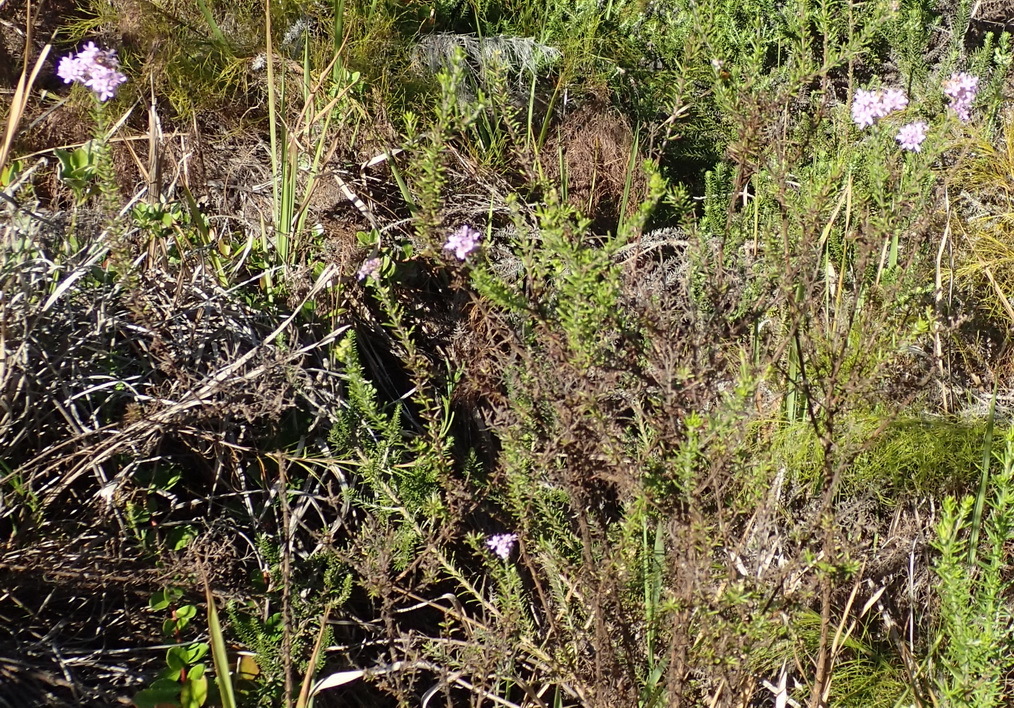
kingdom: Plantae
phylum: Tracheophyta
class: Magnoliopsida
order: Lamiales
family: Scrophulariaceae
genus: Selago
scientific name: Selago villicaulis
